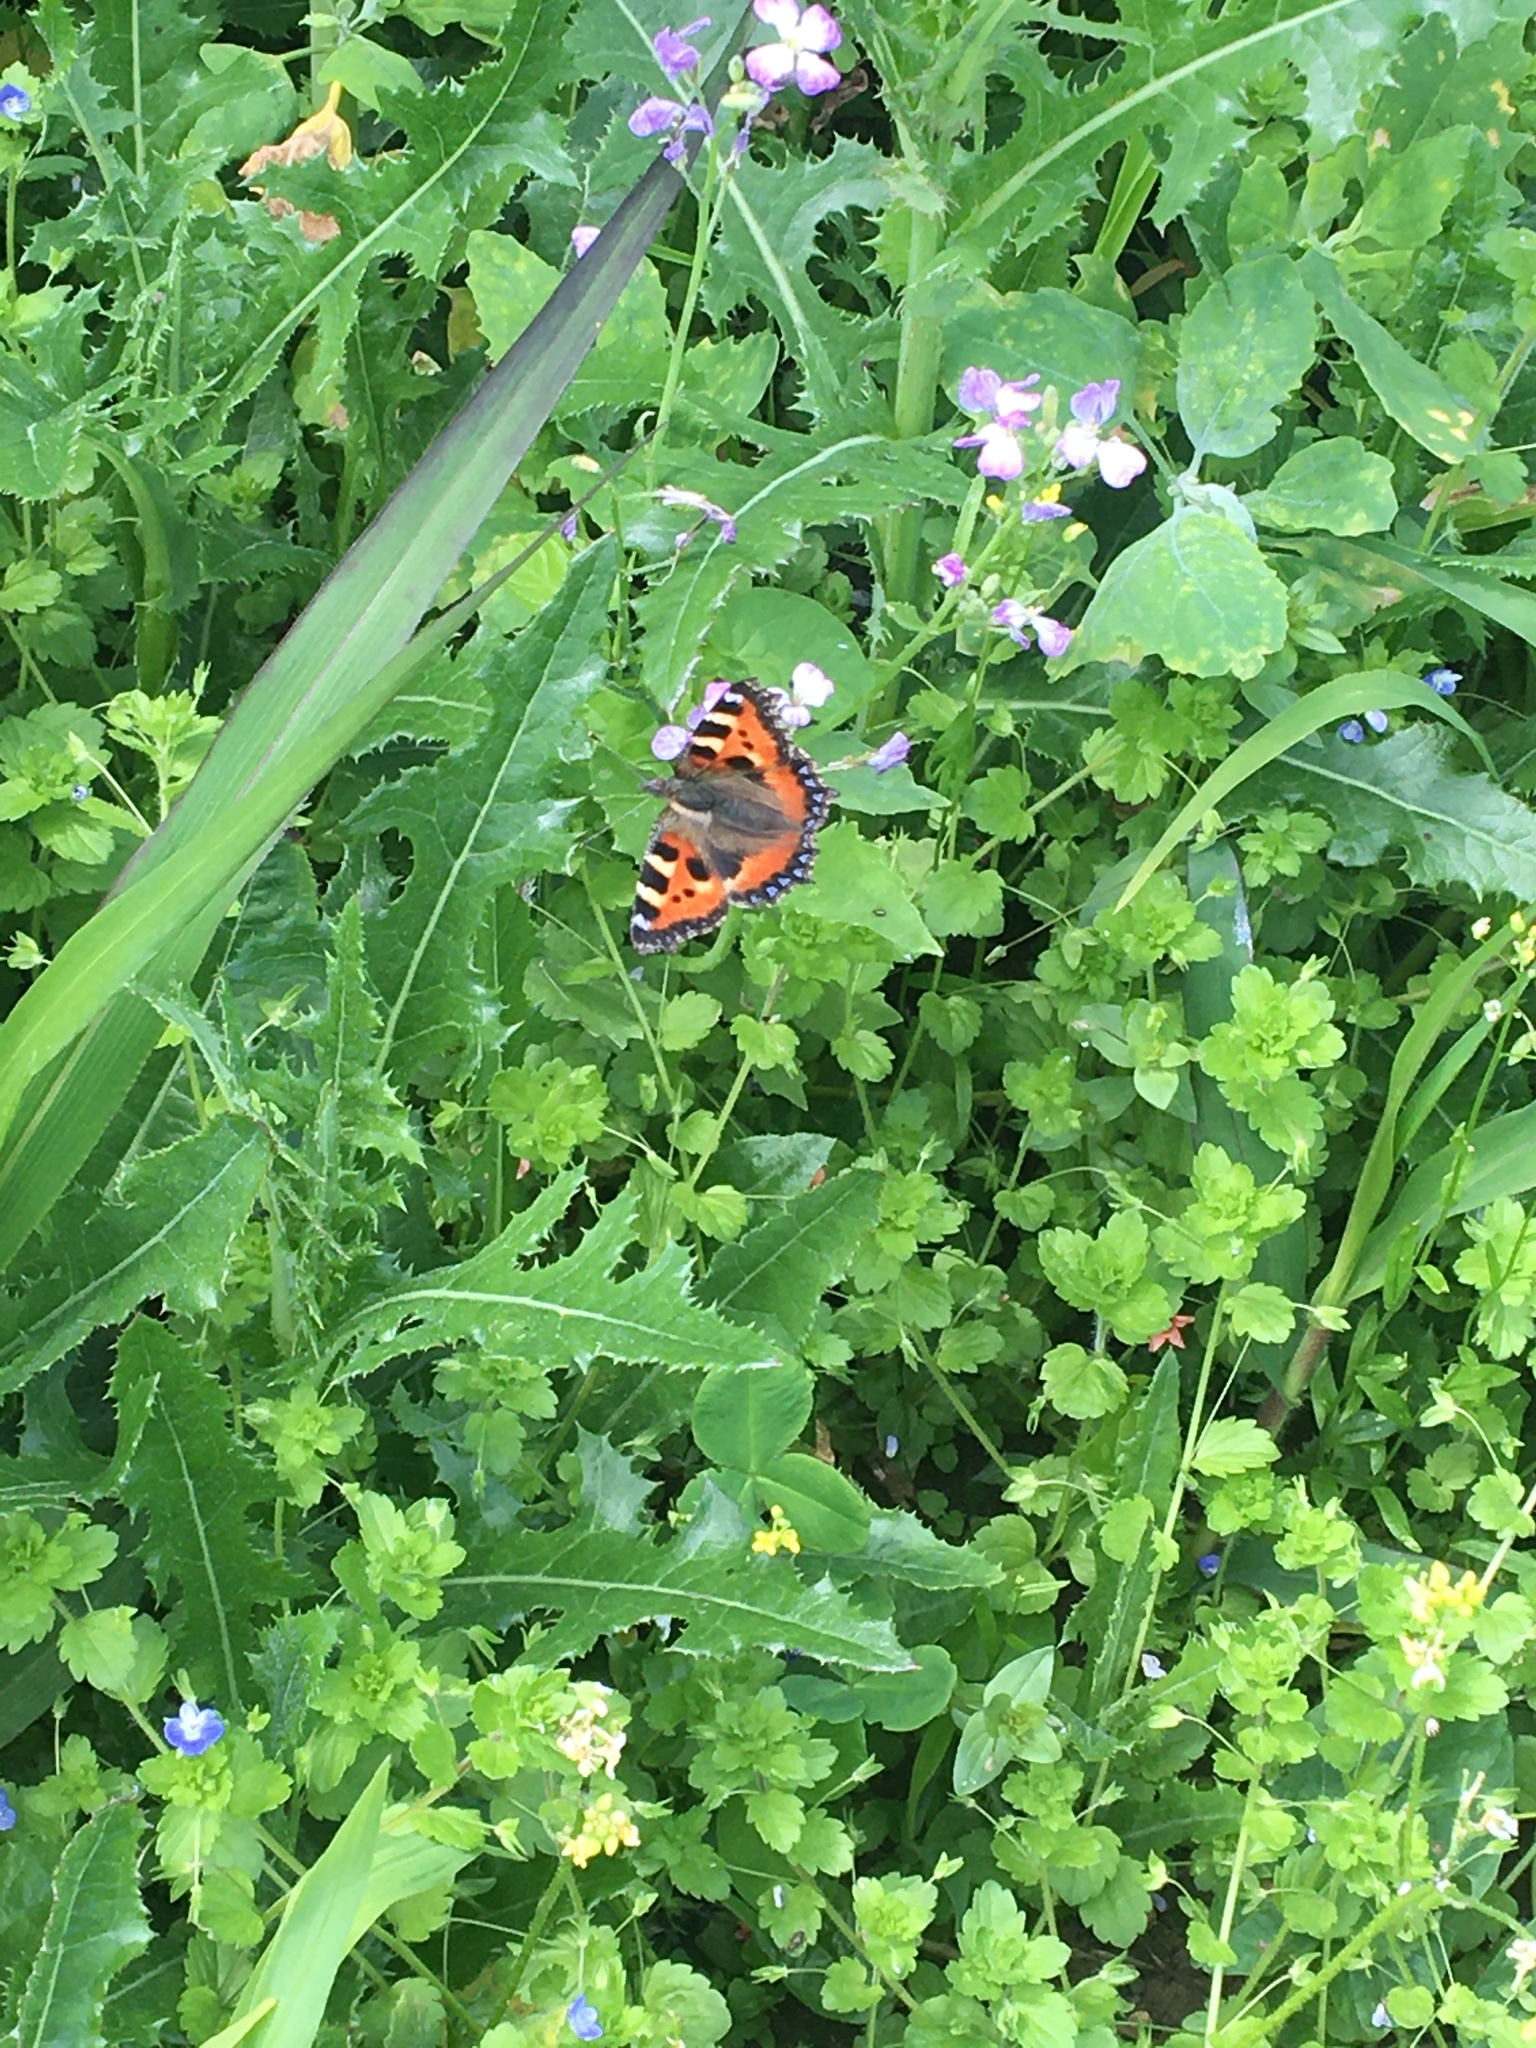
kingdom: Animalia
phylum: Arthropoda
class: Insecta
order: Lepidoptera
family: Nymphalidae
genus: Aglais
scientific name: Aglais urticae
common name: Small tortoiseshell
